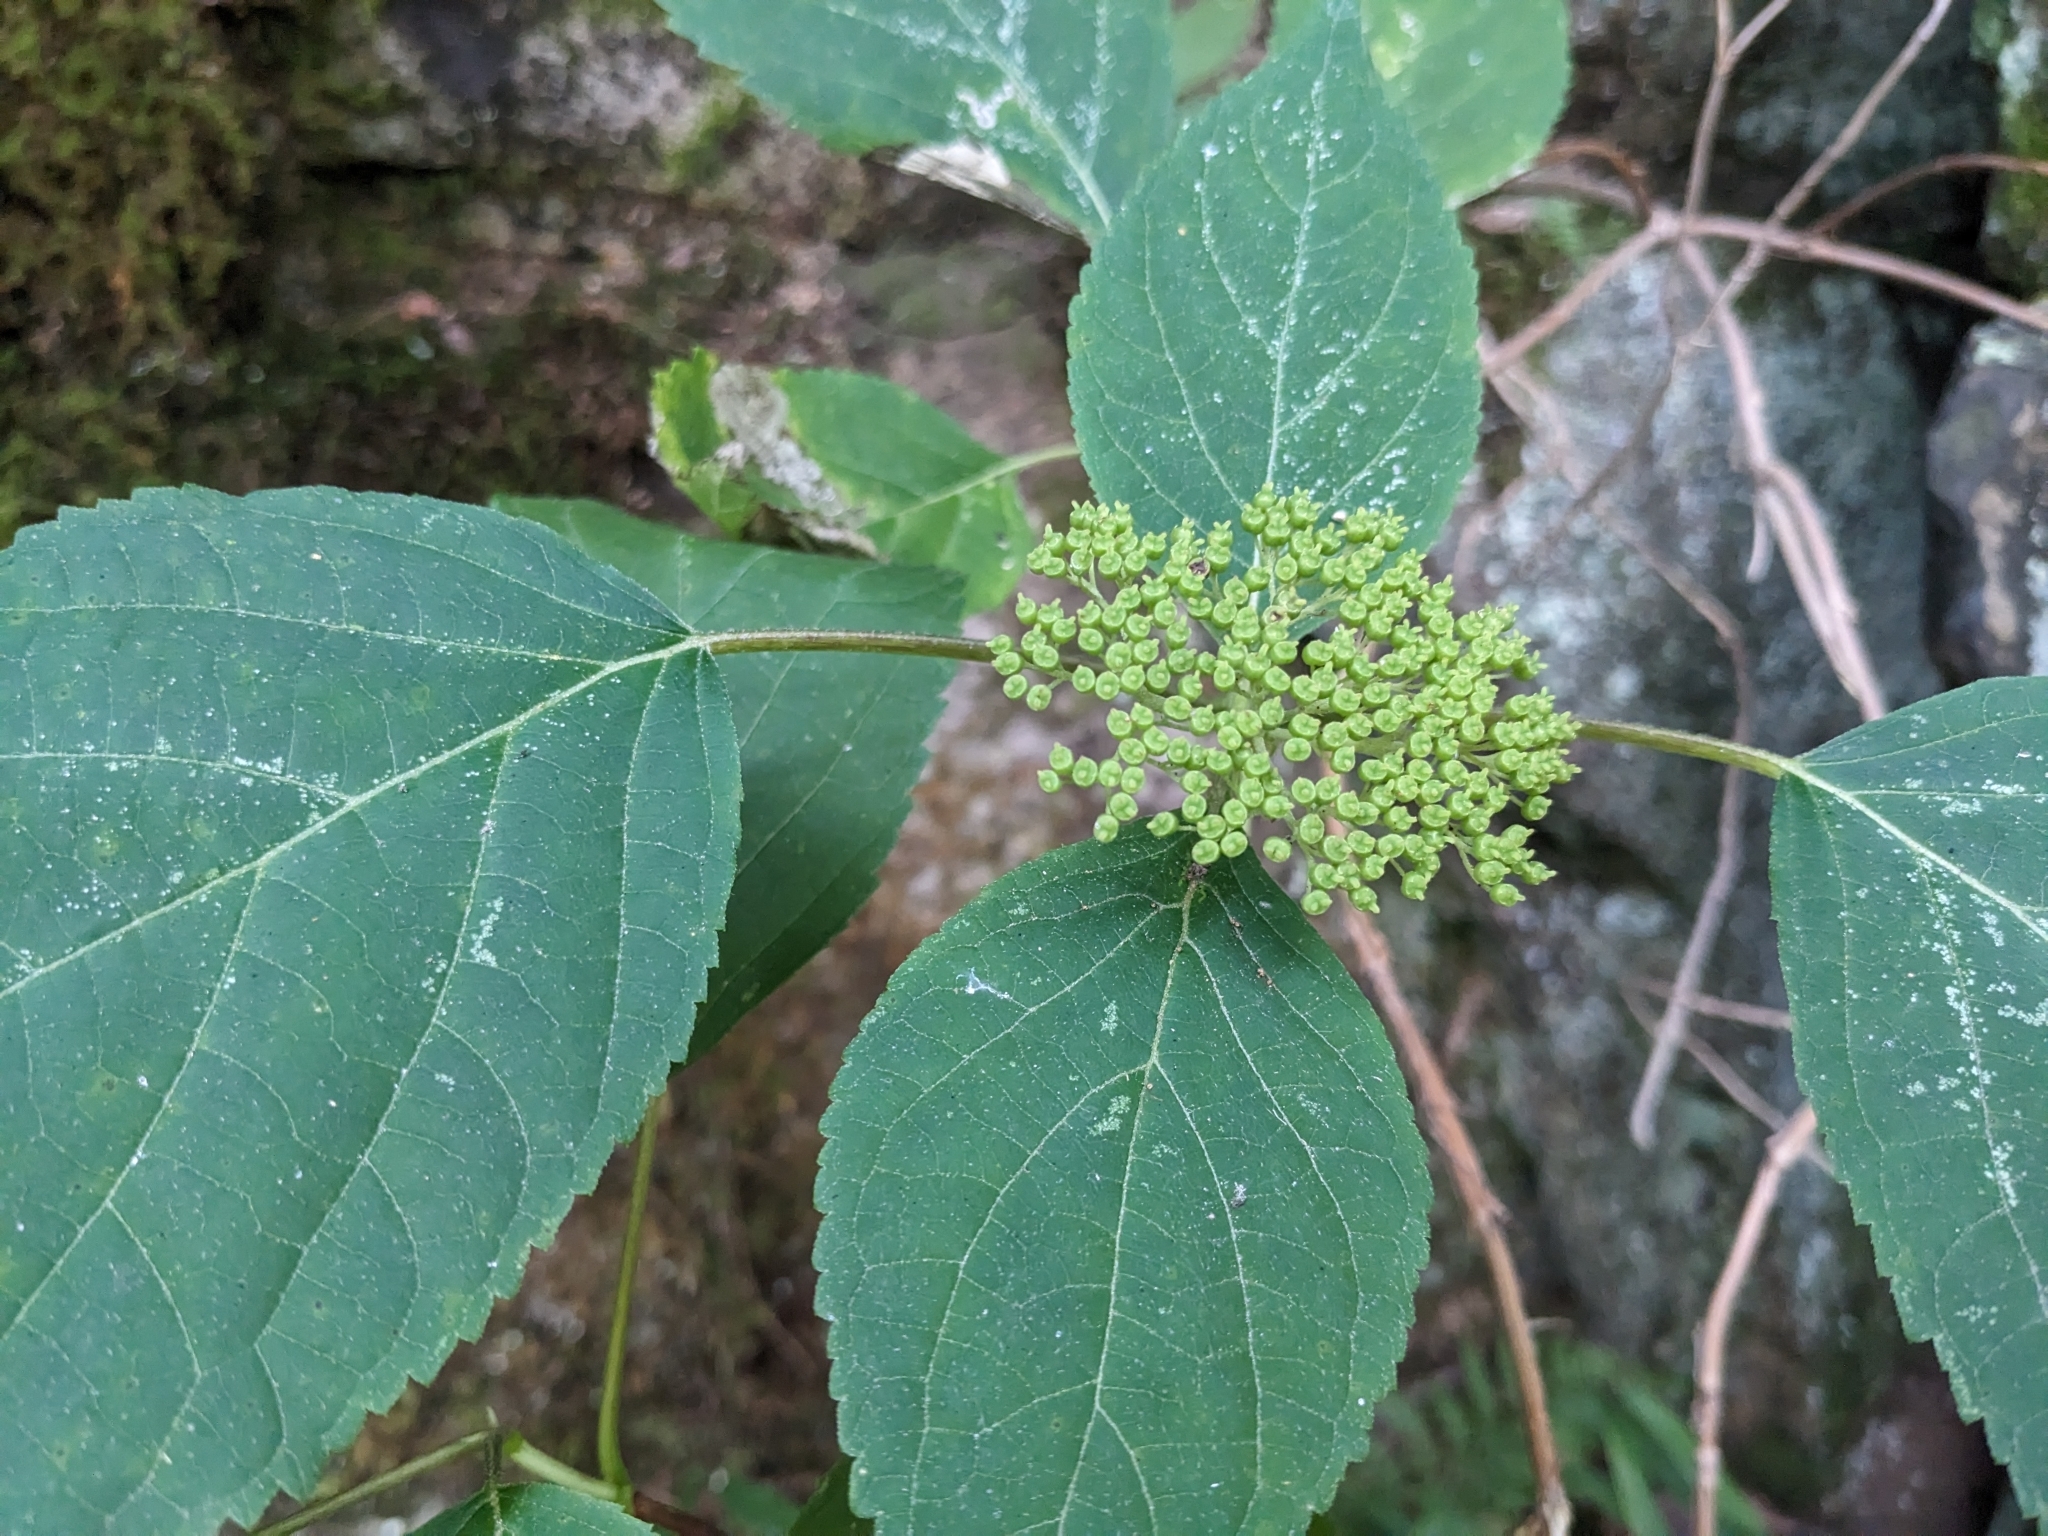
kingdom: Plantae
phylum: Tracheophyta
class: Magnoliopsida
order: Cornales
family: Hydrangeaceae
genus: Hydrangea
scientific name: Hydrangea arborescens
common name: Sevenbark
